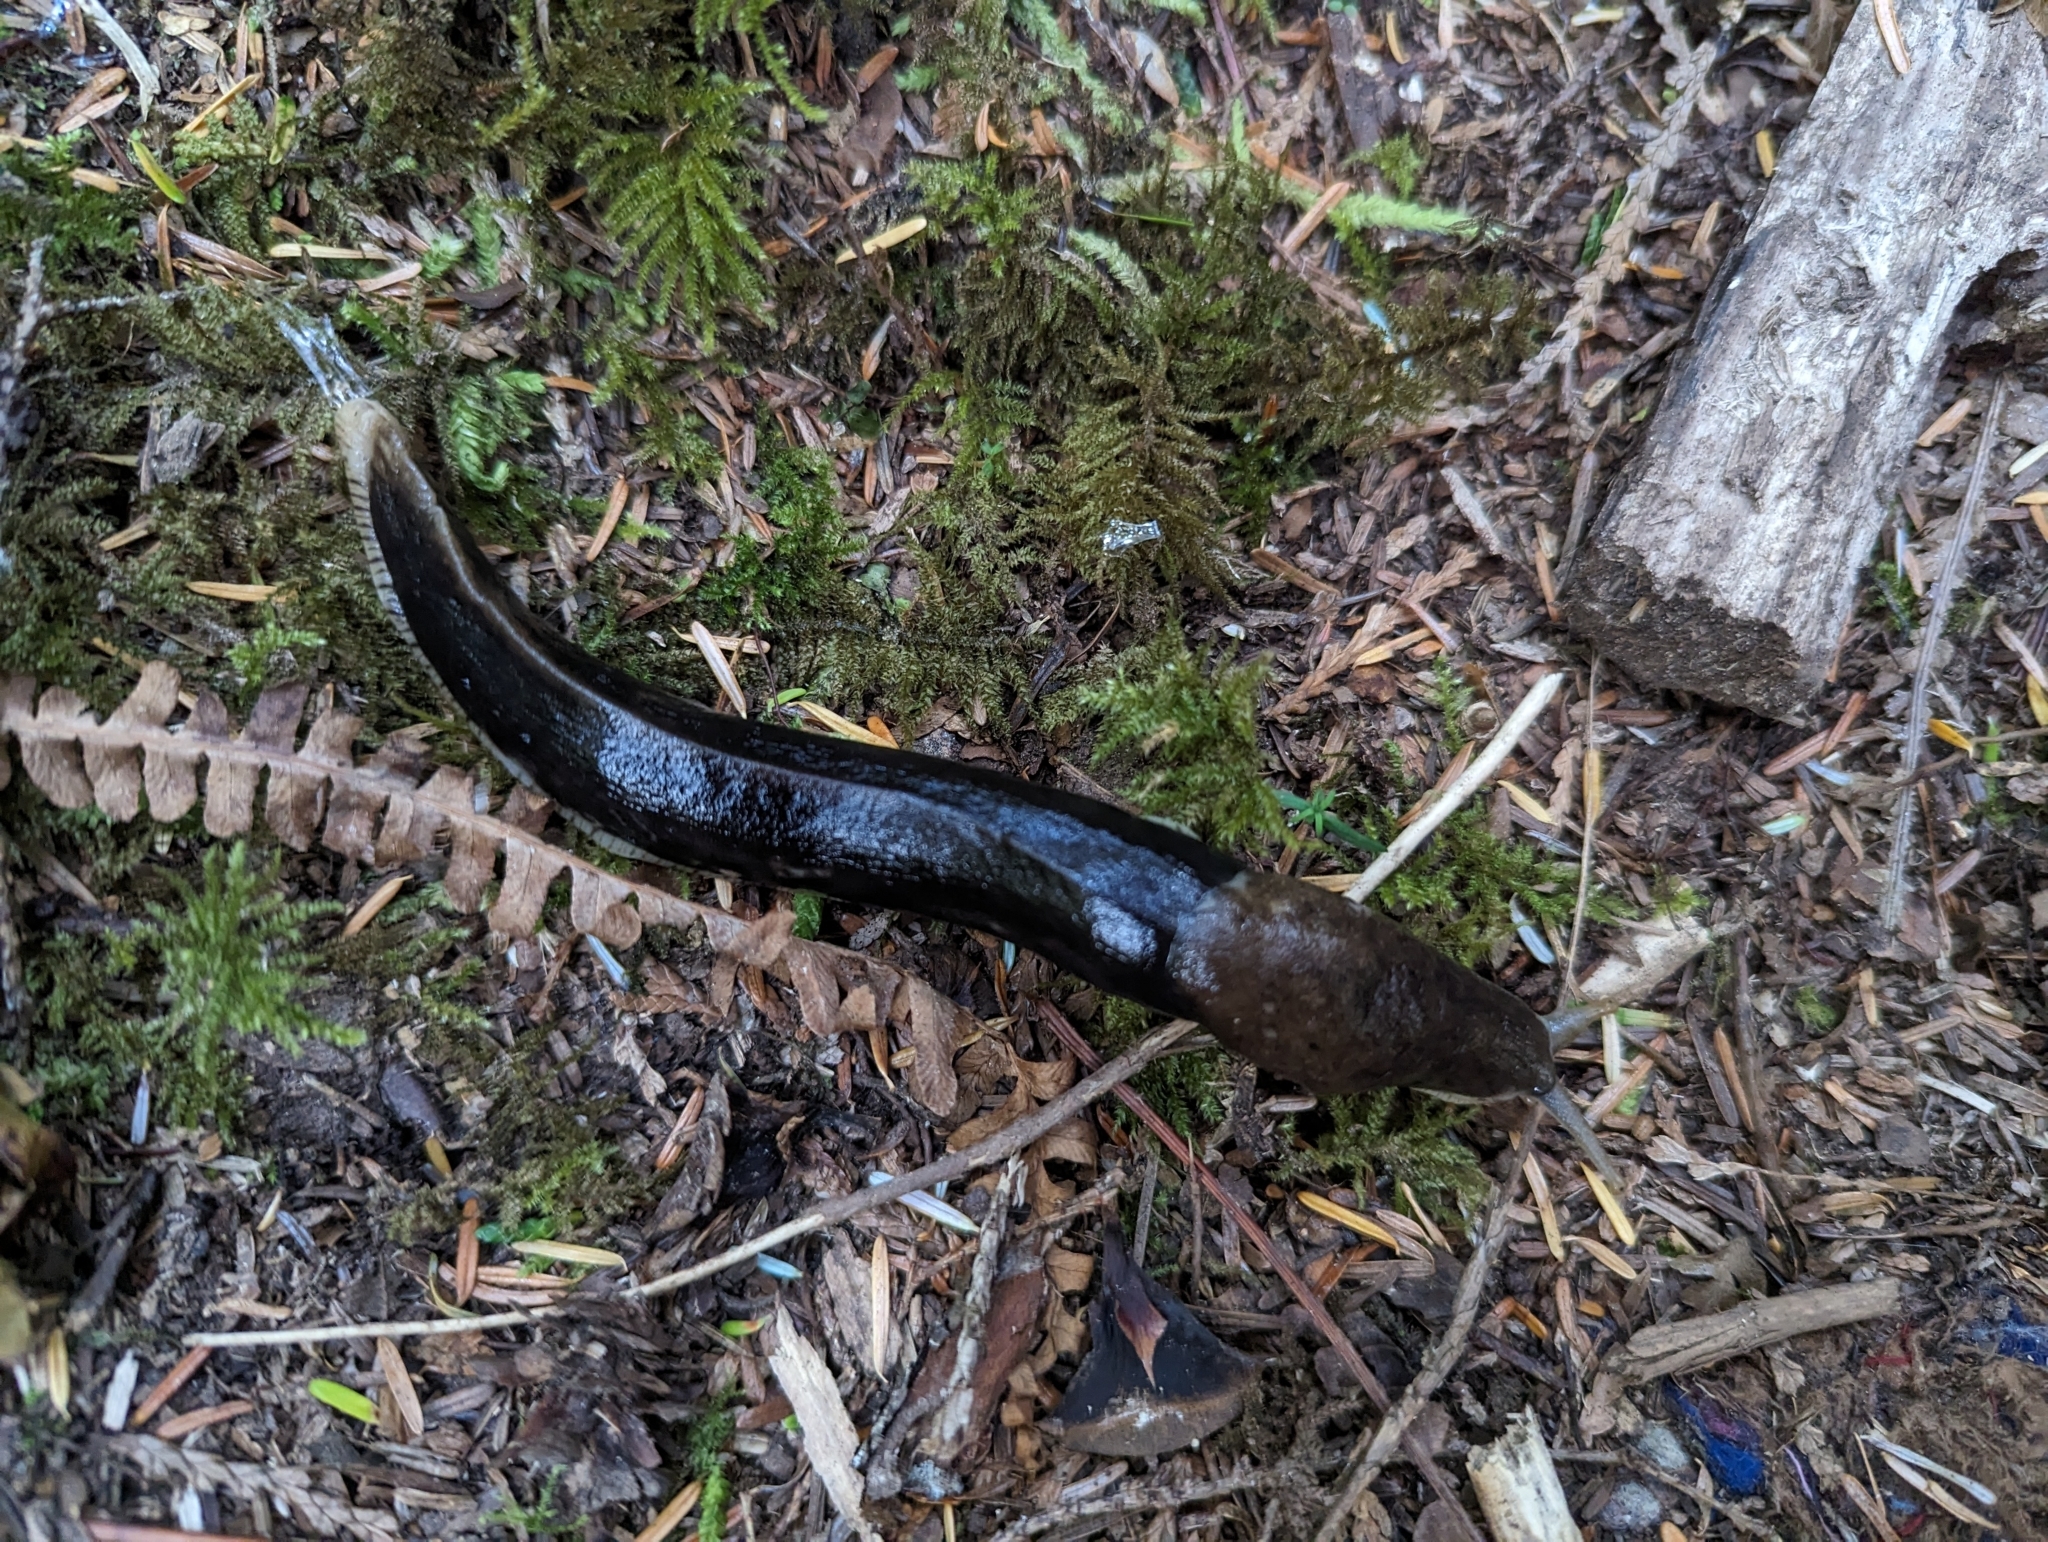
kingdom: Animalia
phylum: Mollusca
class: Gastropoda
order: Stylommatophora
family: Ariolimacidae
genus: Ariolimax
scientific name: Ariolimax columbianus
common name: Pacific banana slug
